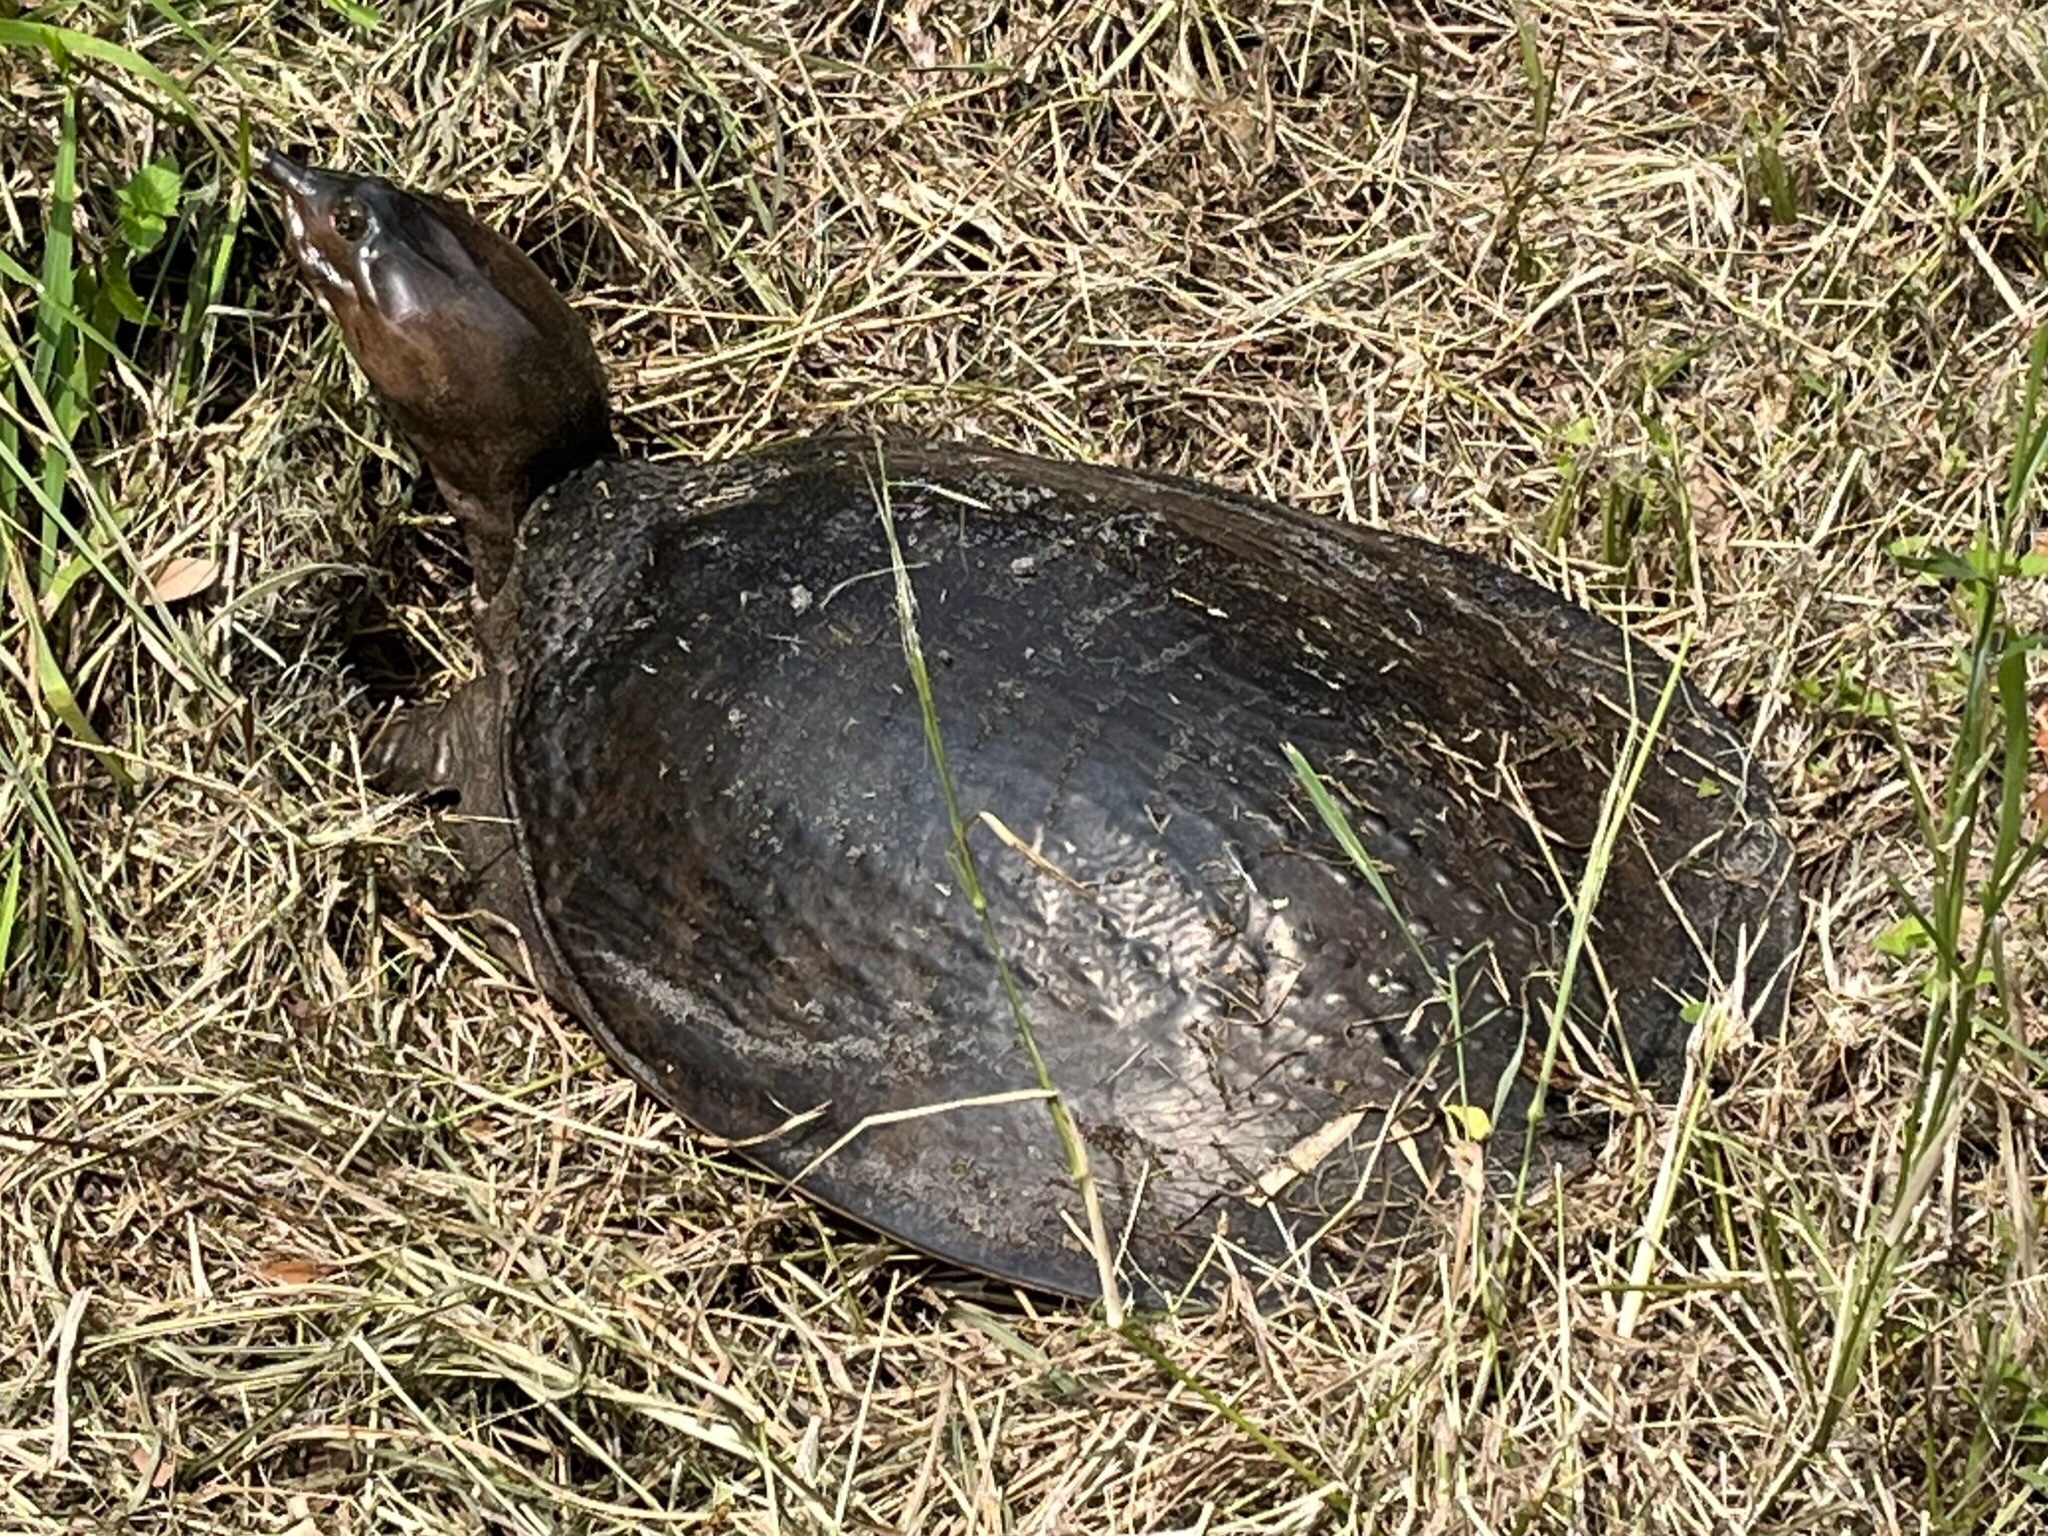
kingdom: Animalia
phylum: Chordata
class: Testudines
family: Trionychidae
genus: Apalone
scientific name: Apalone ferox
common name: Florida softshell turtle
